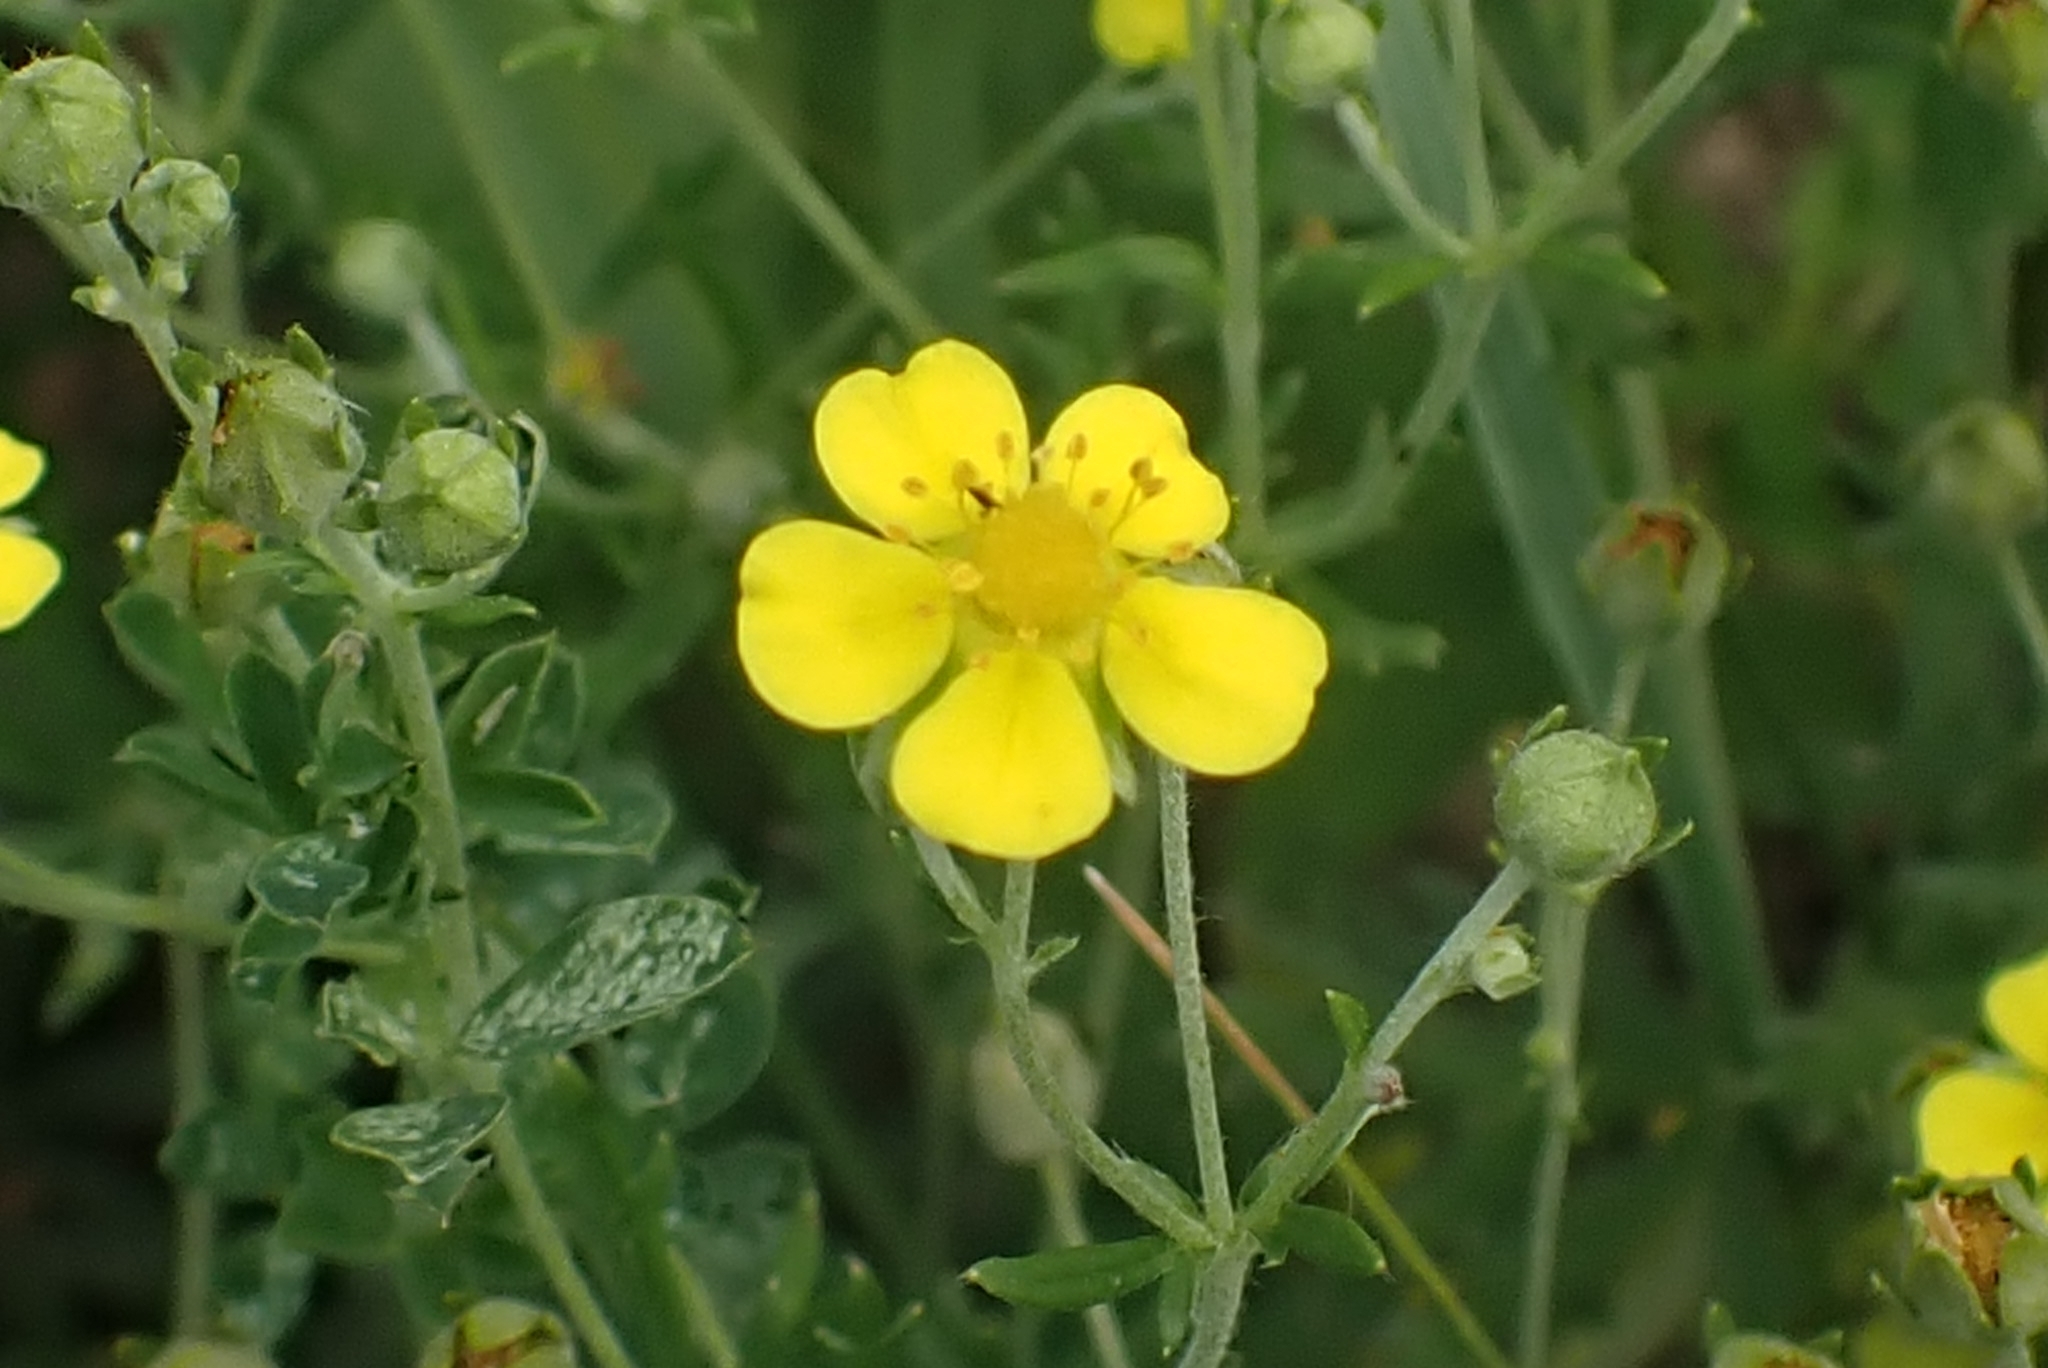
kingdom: Plantae
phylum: Tracheophyta
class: Magnoliopsida
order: Rosales
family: Rosaceae
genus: Potentilla
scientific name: Potentilla argentea
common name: Hoary cinquefoil
